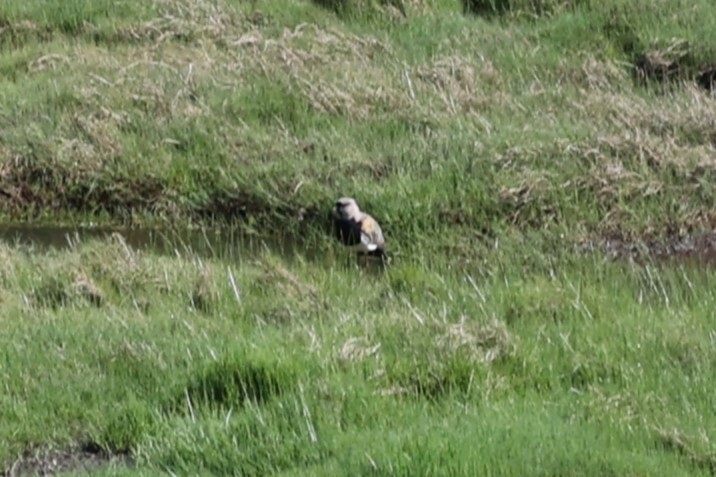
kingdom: Animalia
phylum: Chordata
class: Aves
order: Charadriiformes
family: Charadriidae
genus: Vanellus
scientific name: Vanellus chilensis
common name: Southern lapwing
